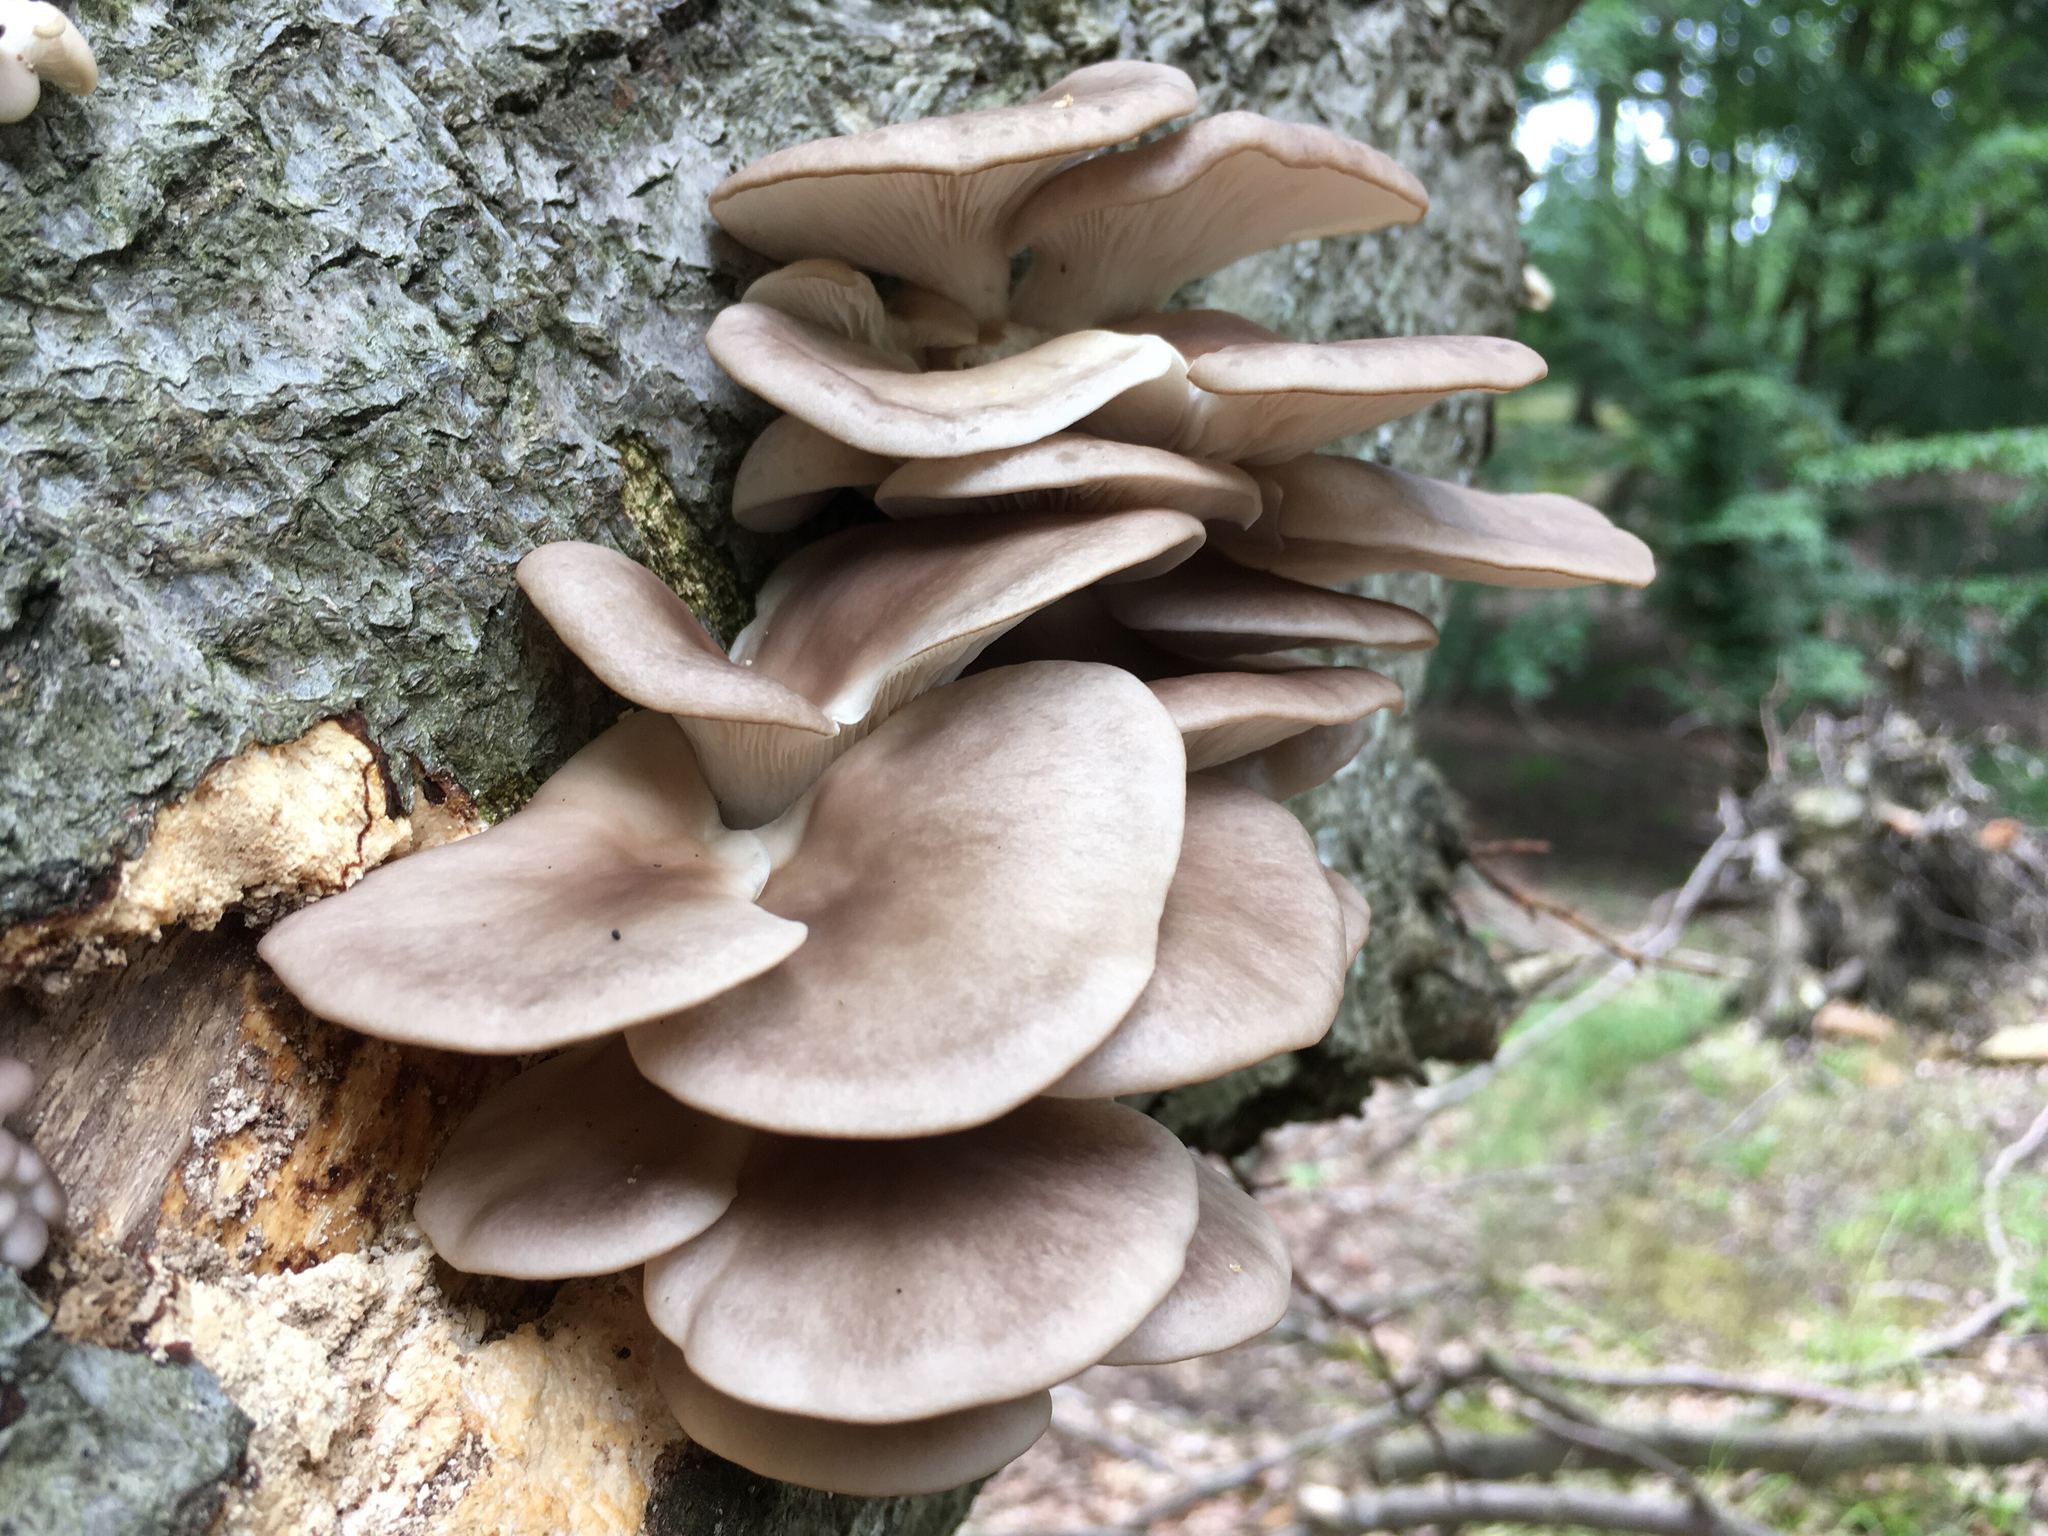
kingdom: Fungi
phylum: Basidiomycota
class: Agaricomycetes
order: Agaricales
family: Pleurotaceae
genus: Pleurotus
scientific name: Pleurotus ostreatus
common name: Oyster mushroom
